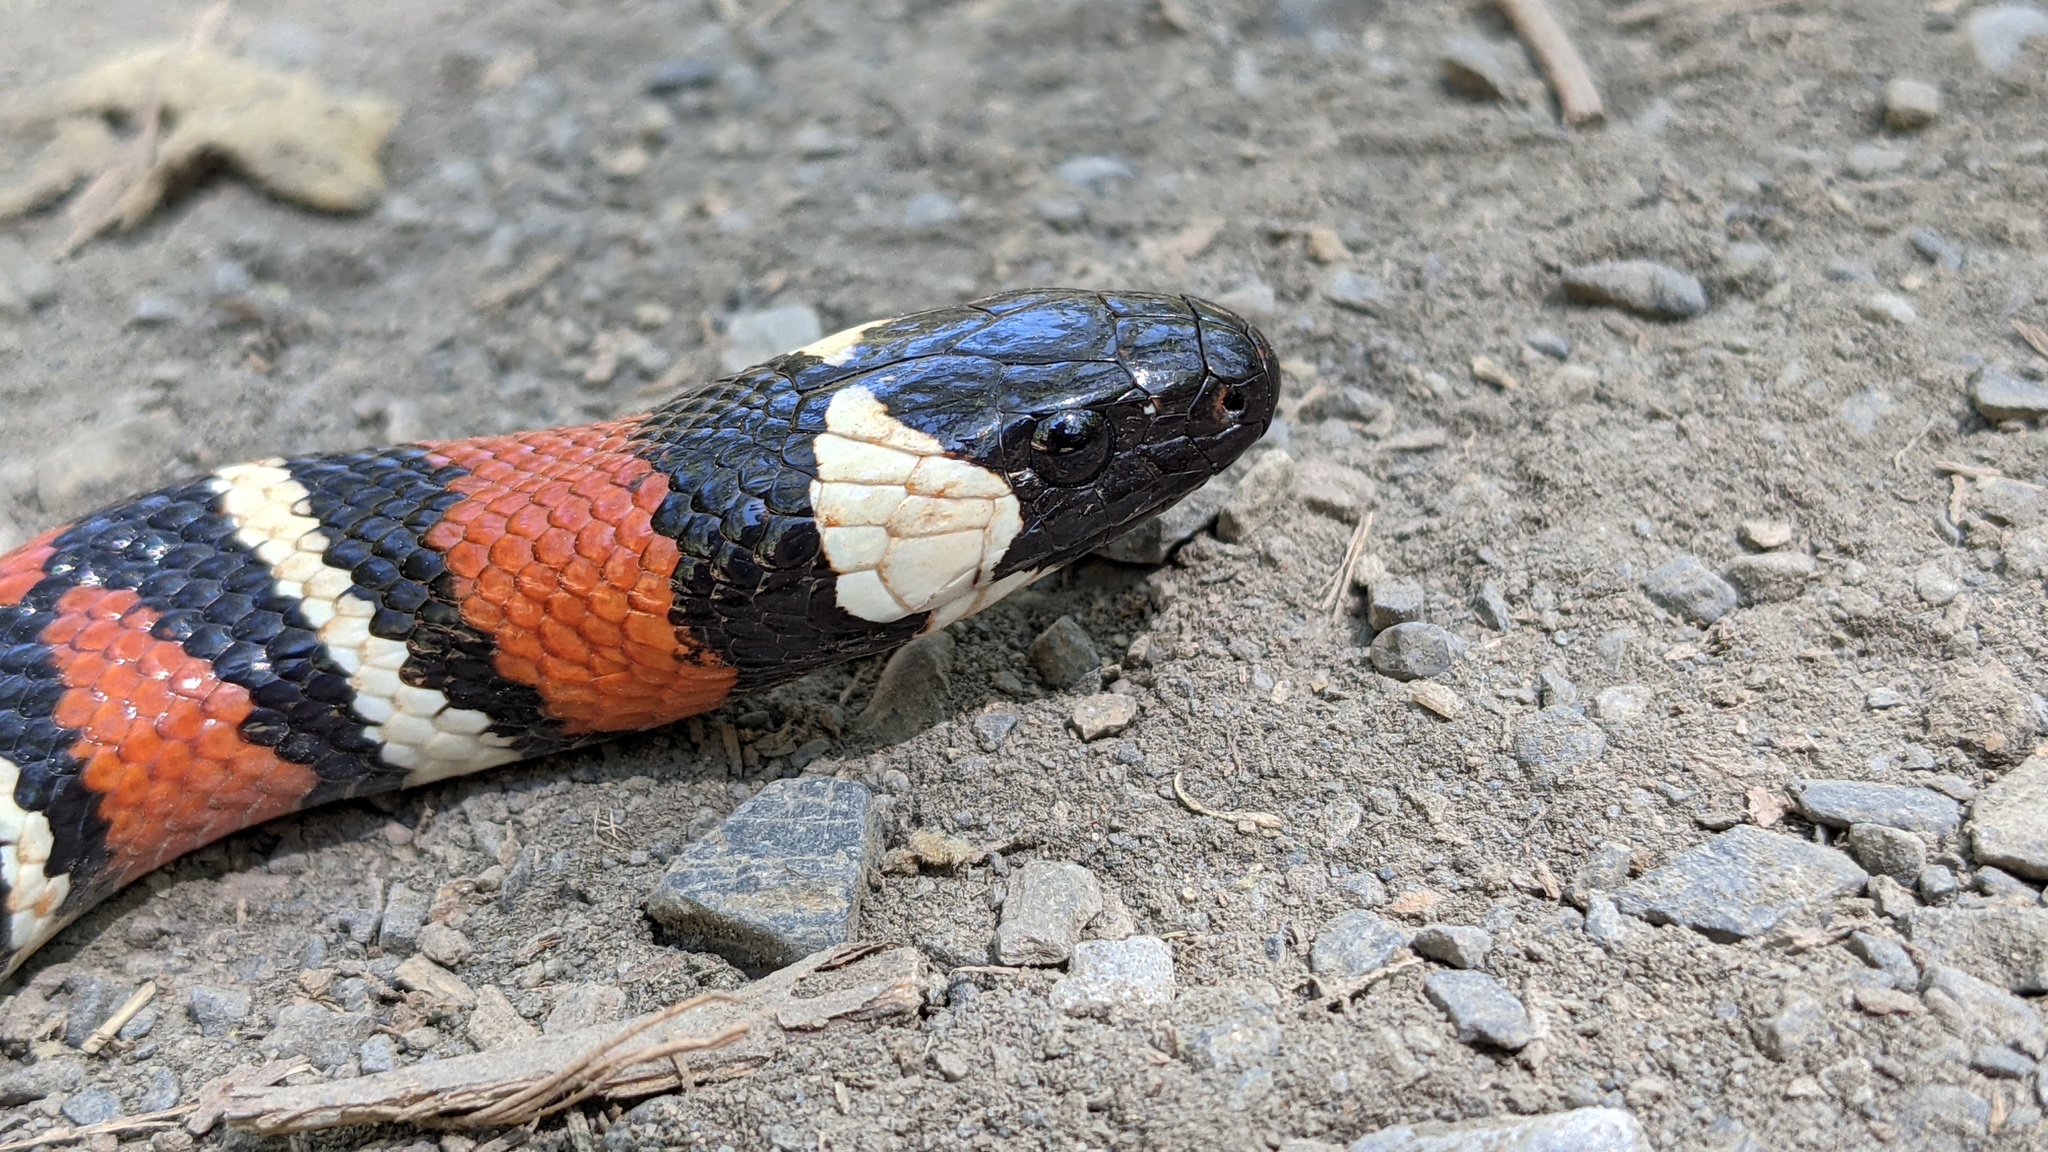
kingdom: Animalia
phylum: Chordata
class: Squamata
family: Colubridae
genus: Lampropeltis
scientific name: Lampropeltis zonata
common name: California mountain kingsnake
